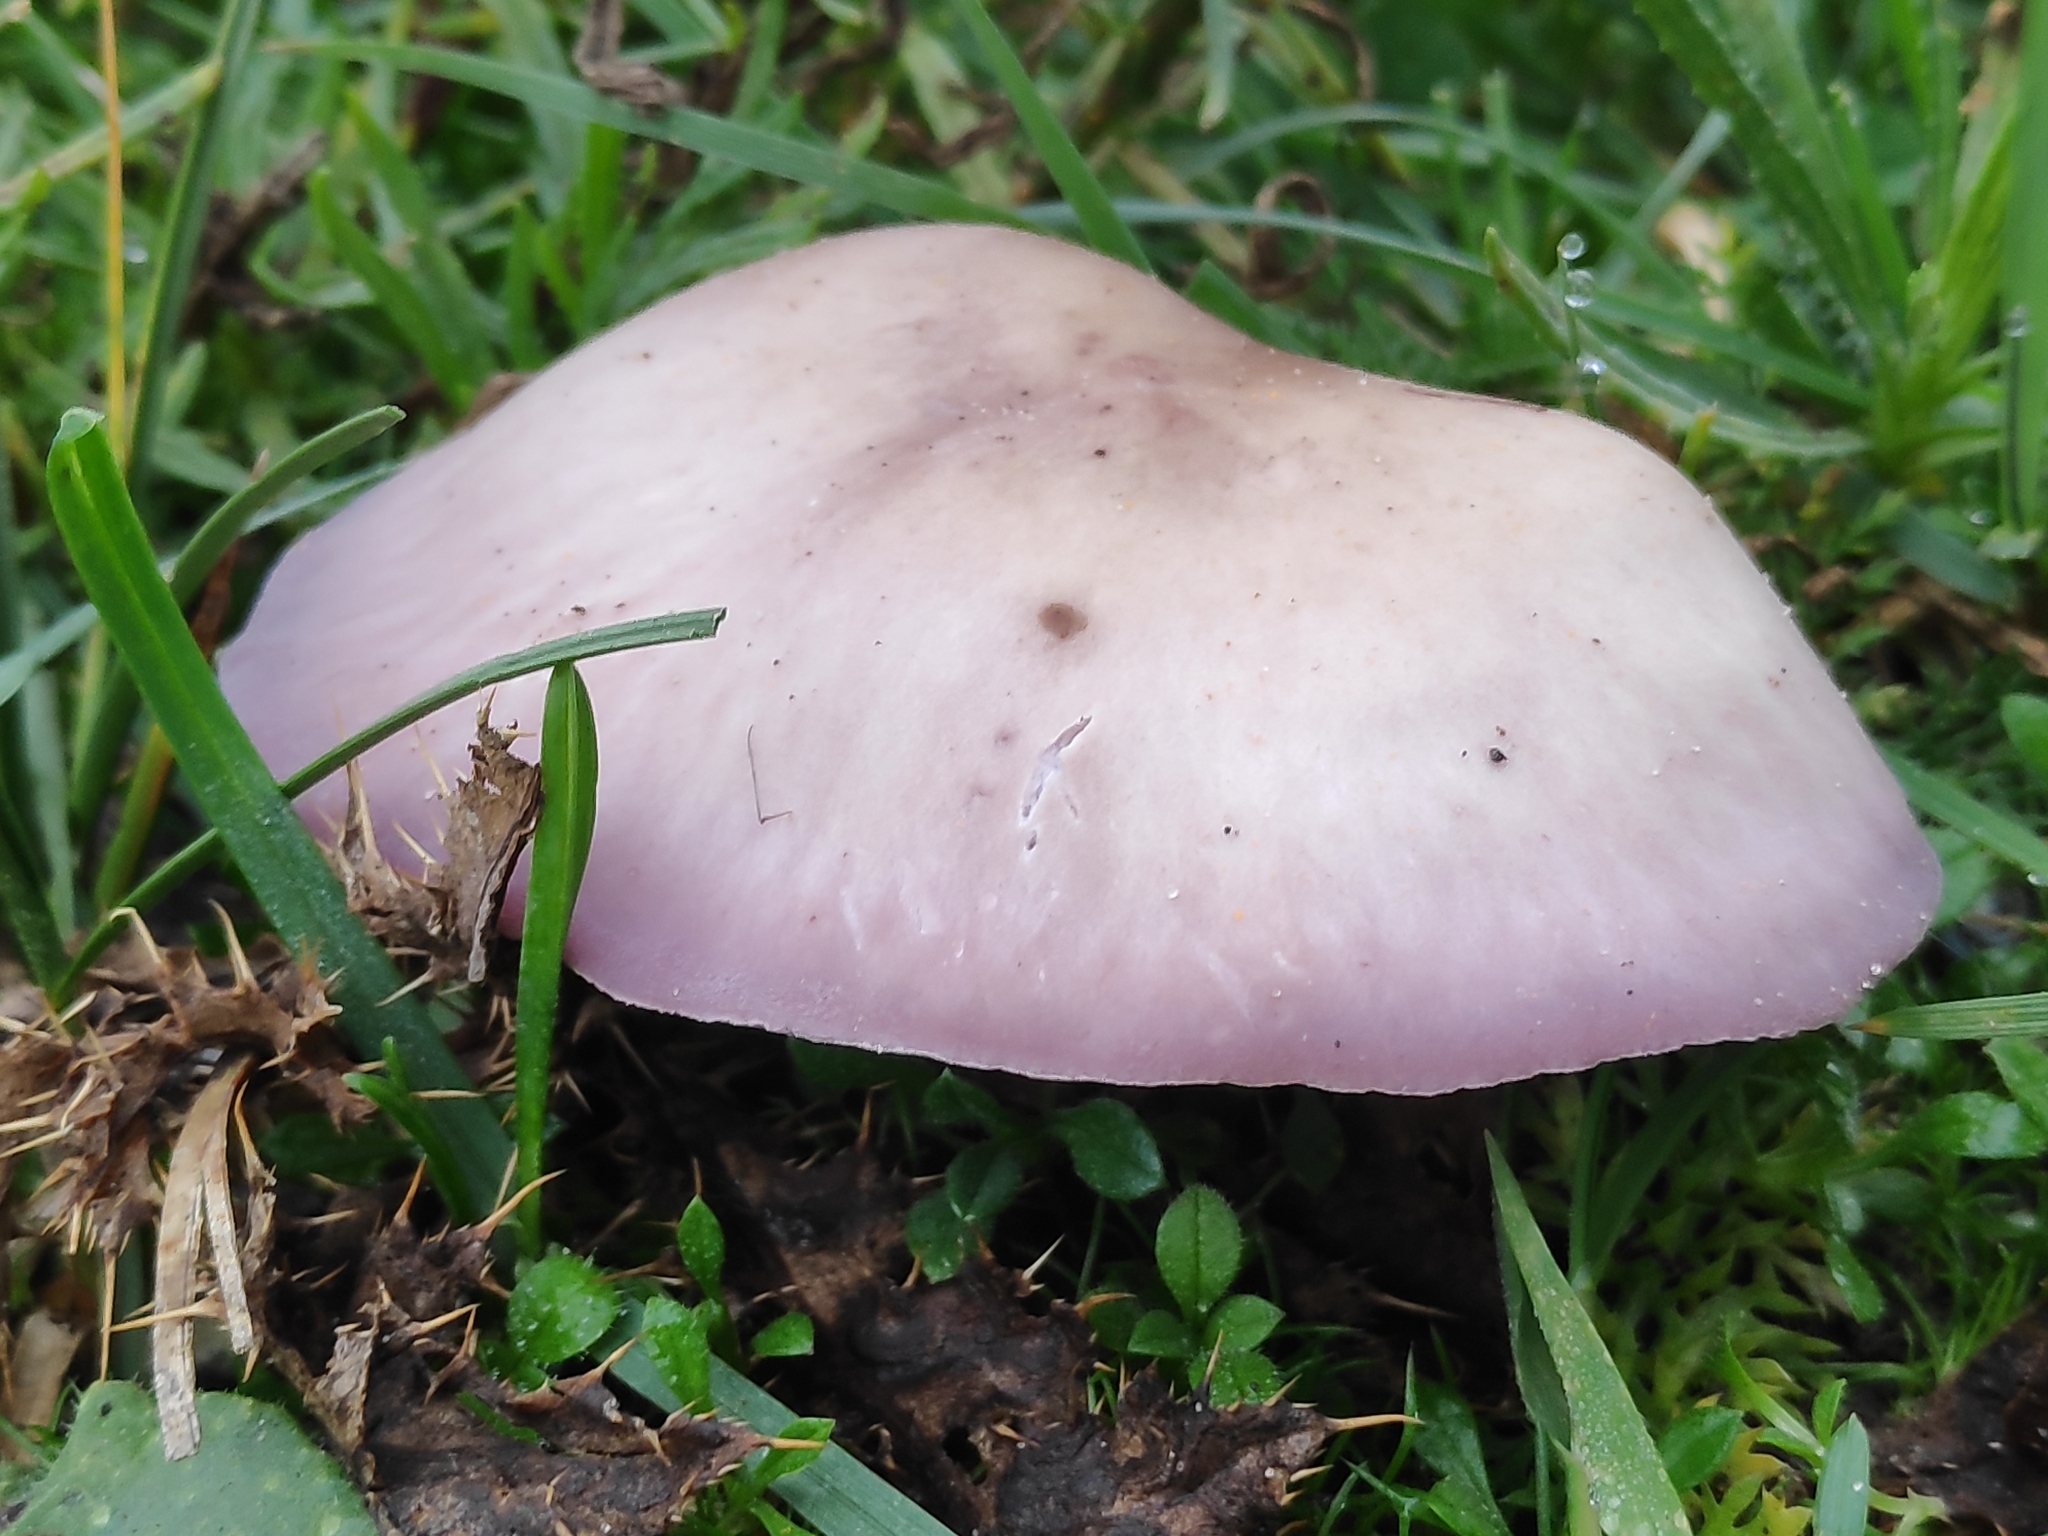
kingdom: Fungi
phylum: Basidiomycota
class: Agaricomycetes
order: Agaricales
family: Tricholomataceae
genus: Collybia
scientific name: Collybia
